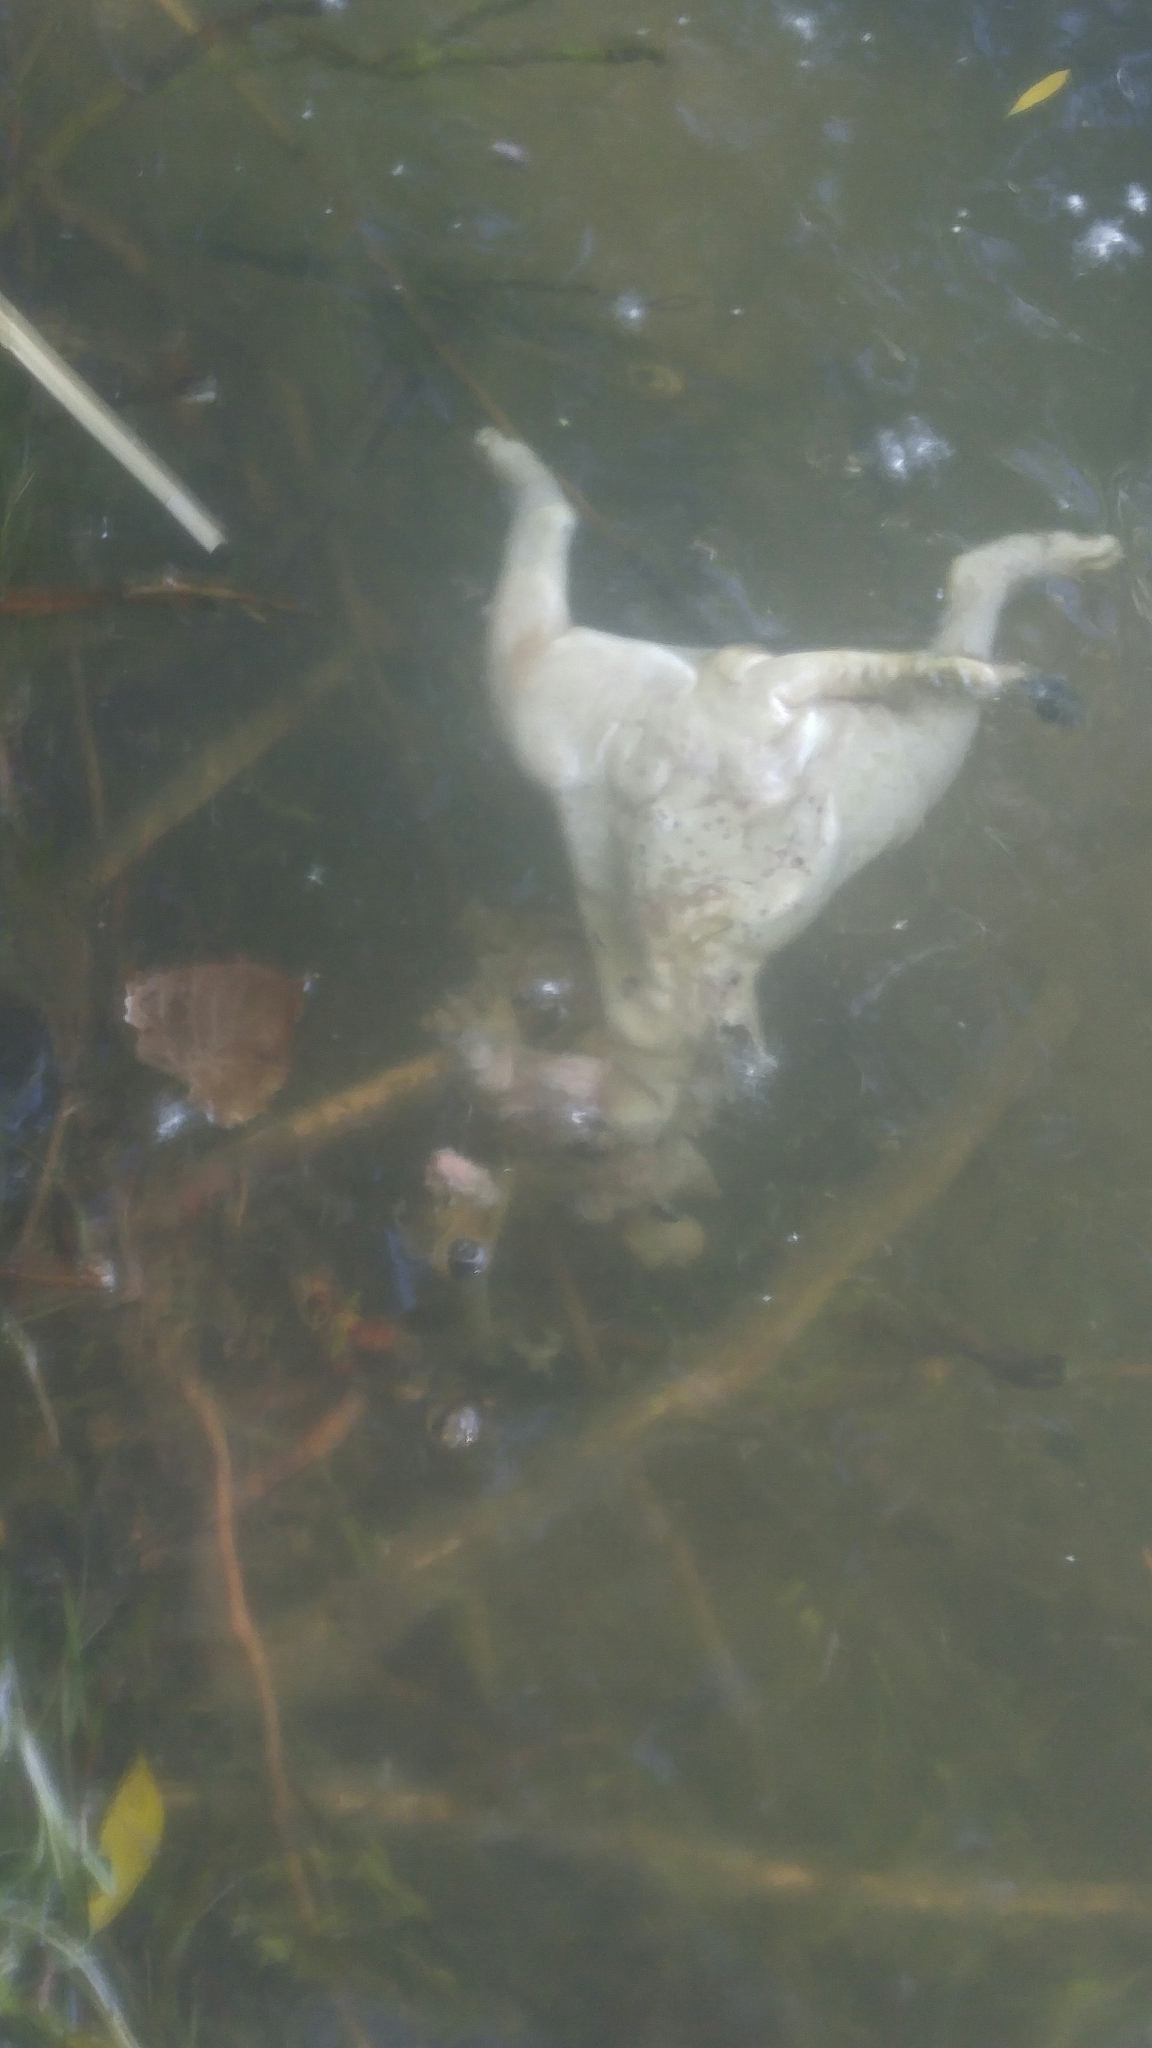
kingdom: Animalia
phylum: Chordata
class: Mammalia
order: Didelphimorphia
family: Didelphidae
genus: Didelphis
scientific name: Didelphis virginiana
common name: Virginia opossum
